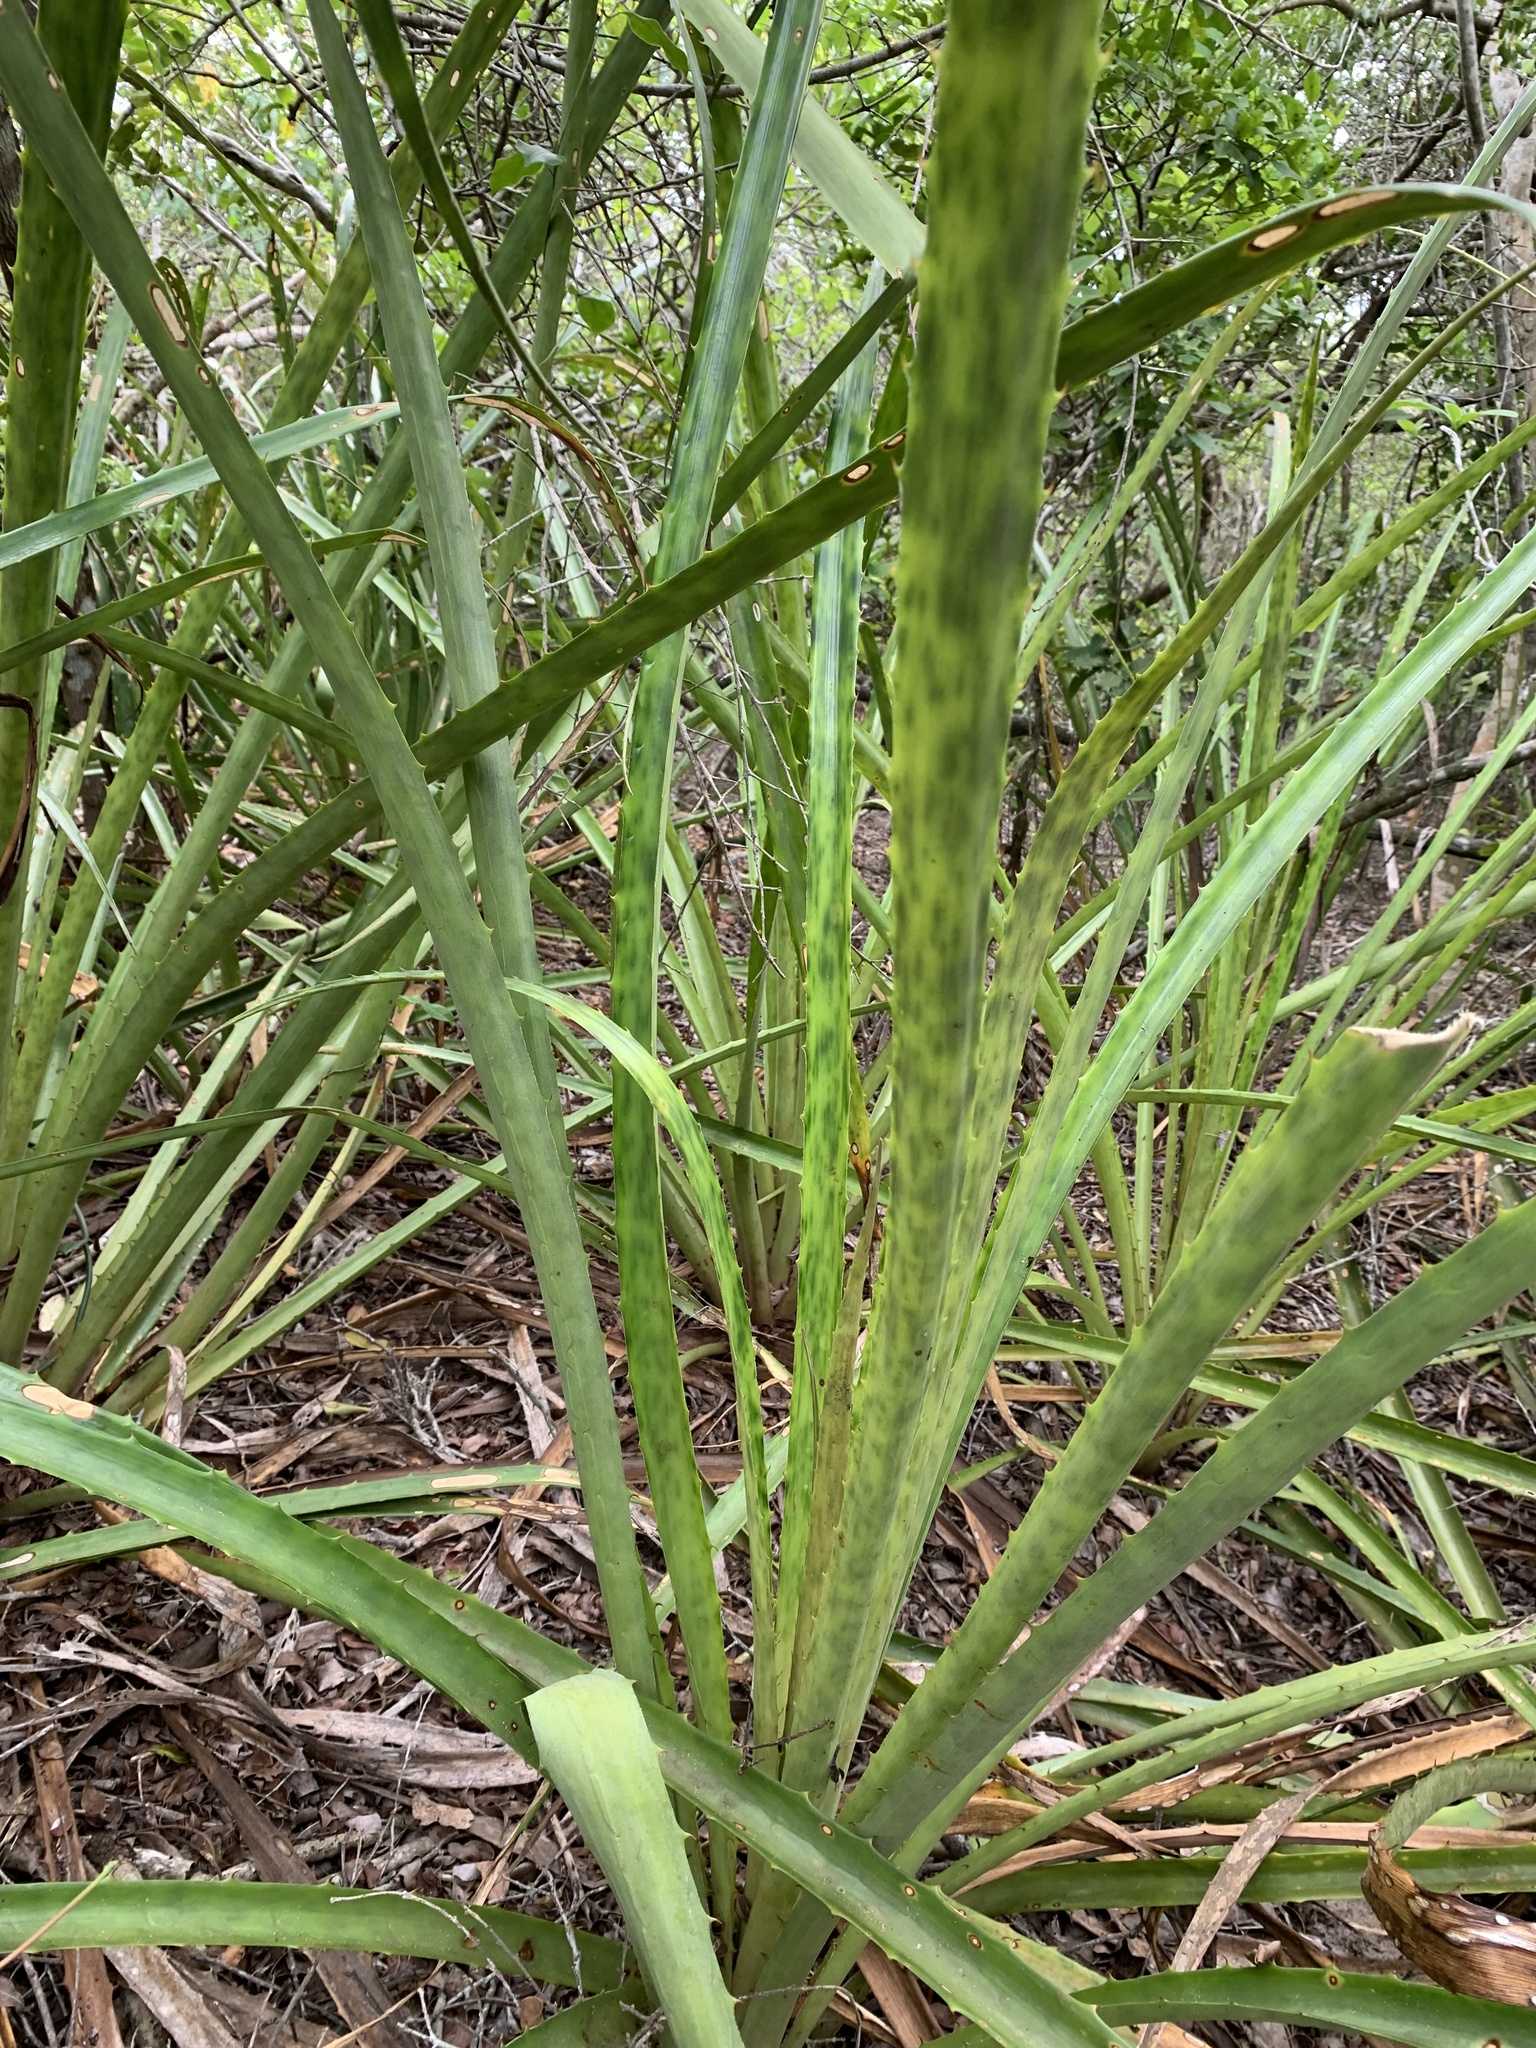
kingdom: Plantae
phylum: Tracheophyta
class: Liliopsida
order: Poales
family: Bromeliaceae
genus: Bromelia
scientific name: Bromelia antiacantha
